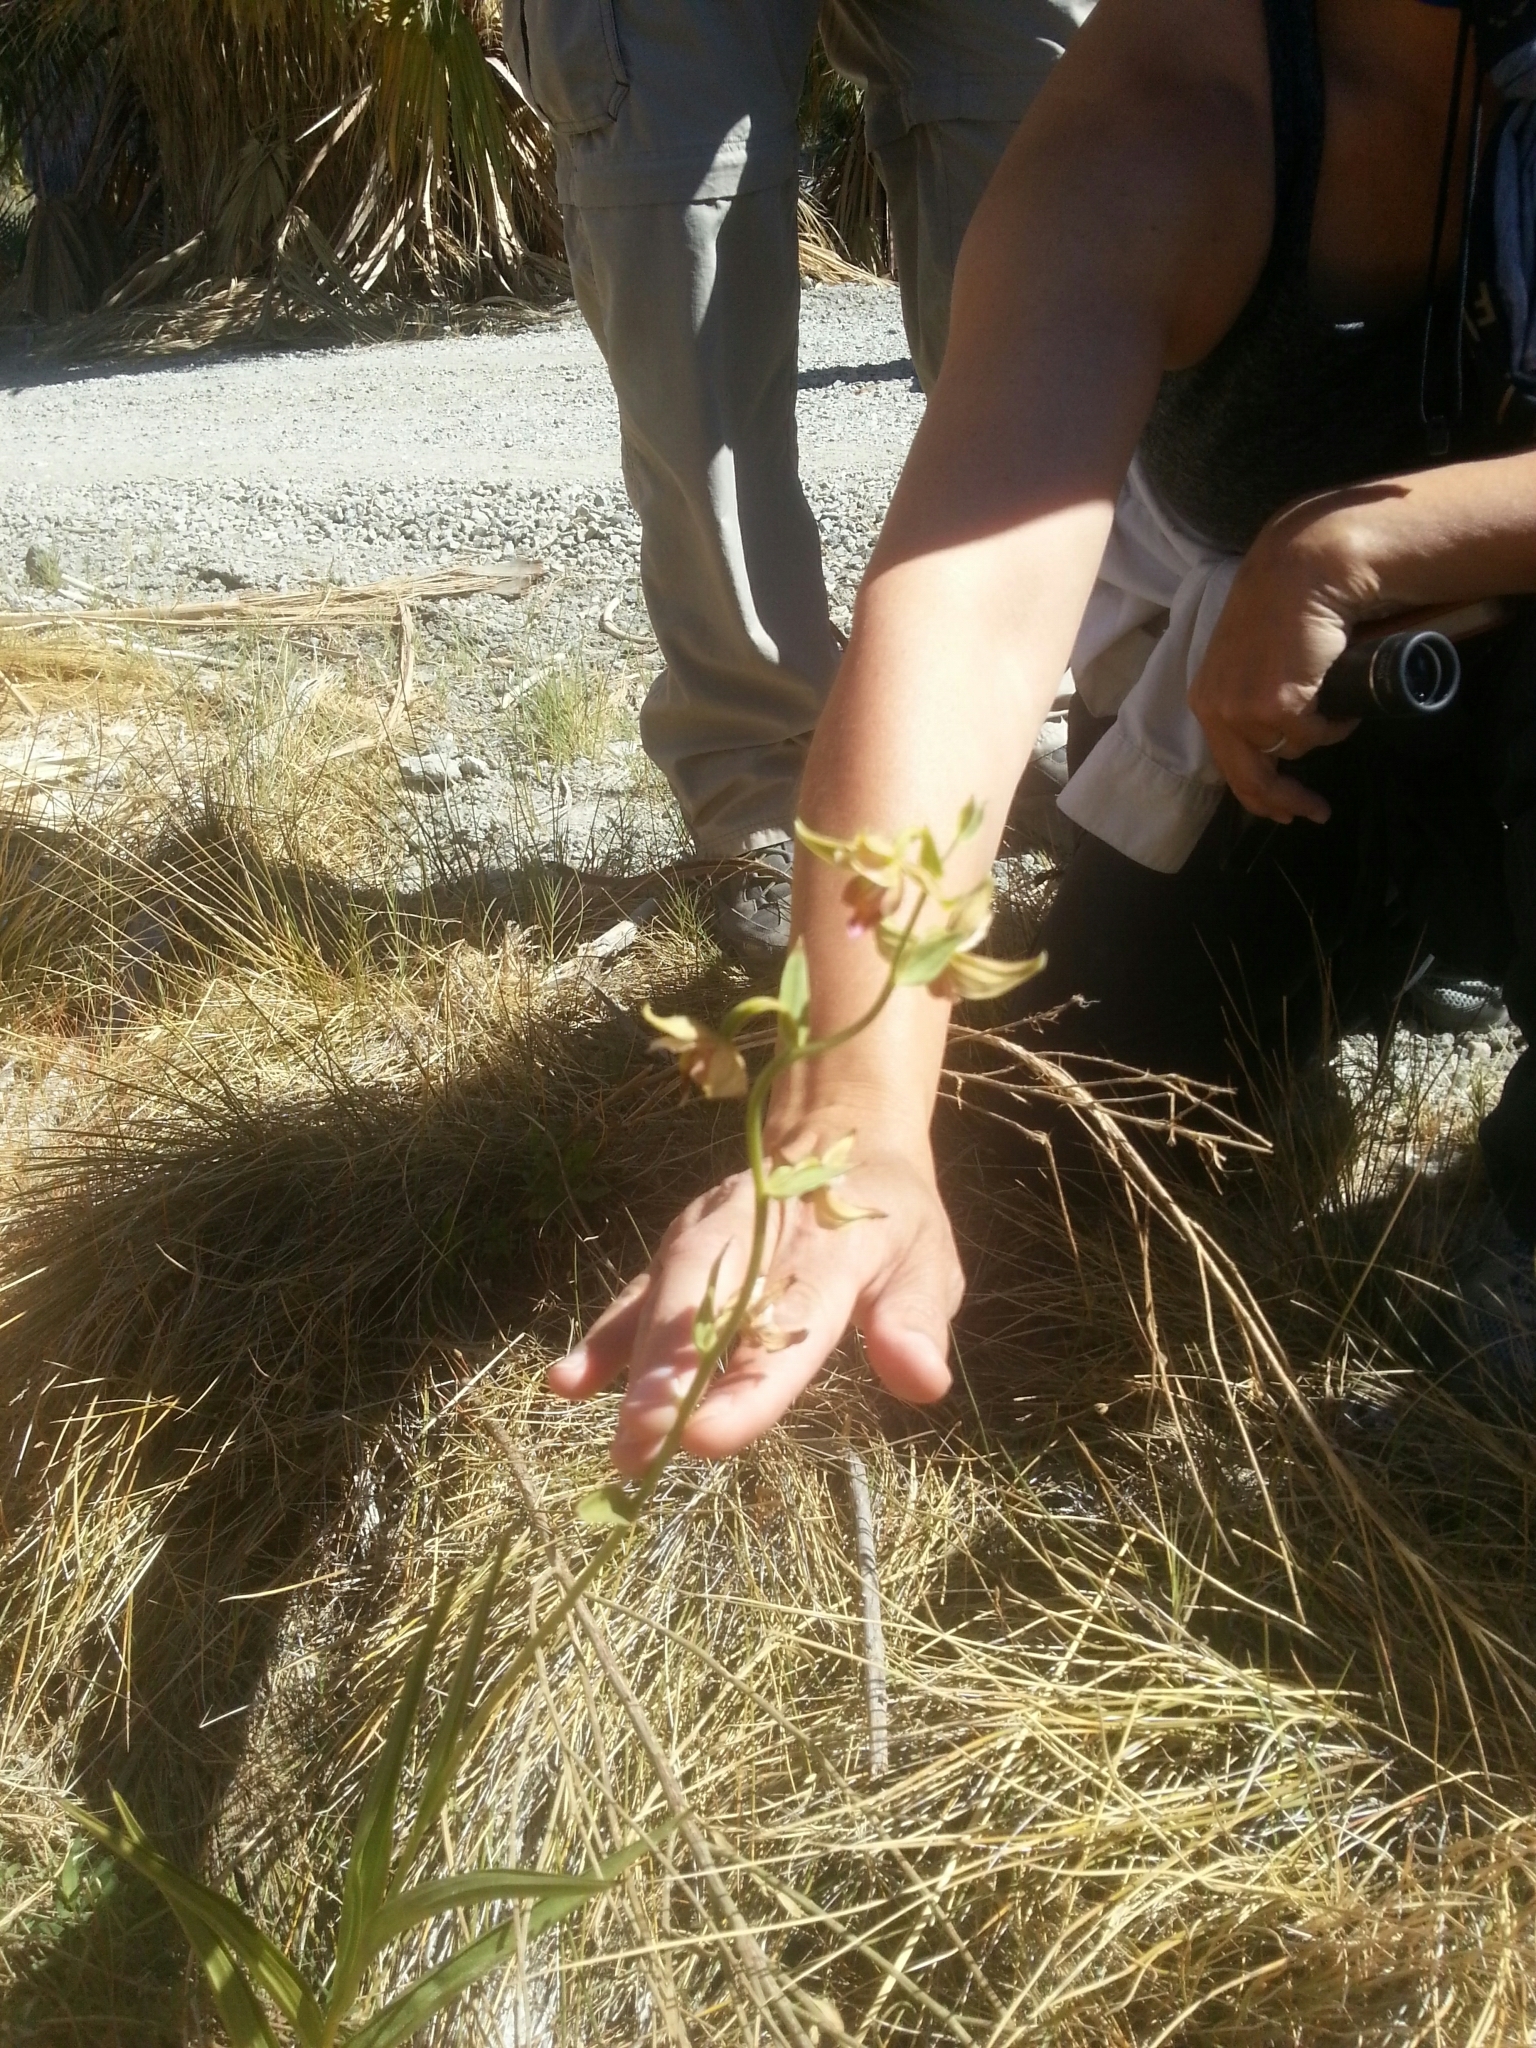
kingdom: Plantae
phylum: Tracheophyta
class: Liliopsida
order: Asparagales
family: Orchidaceae
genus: Epipactis
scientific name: Epipactis gigantea
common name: Chatterbox
